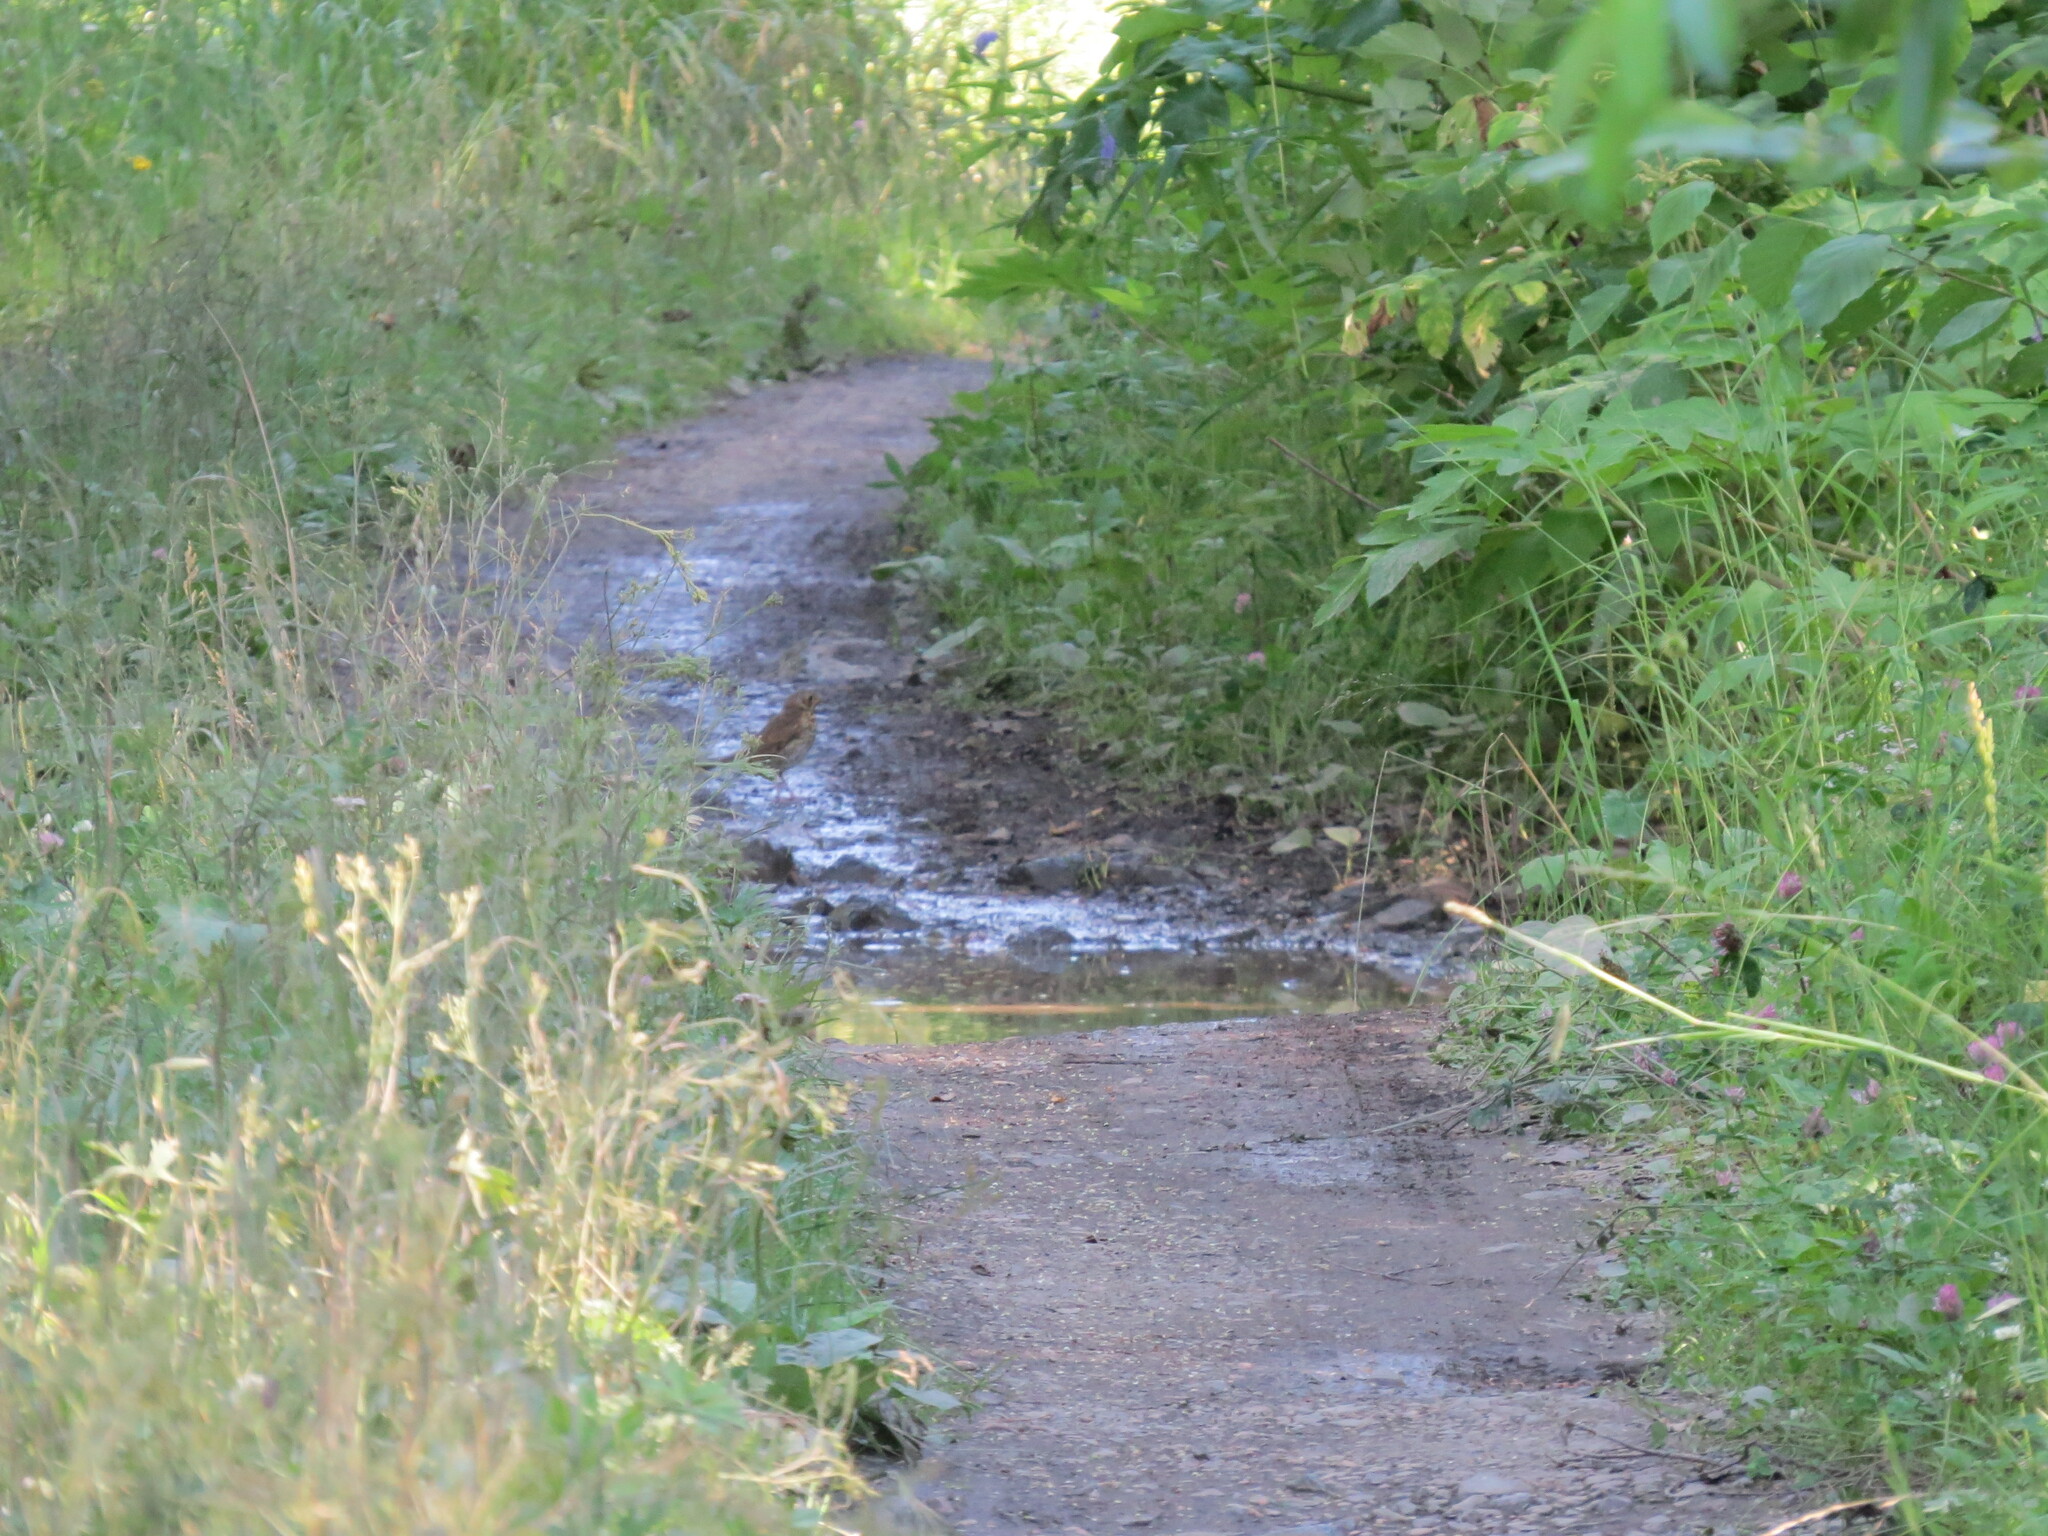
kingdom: Animalia
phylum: Chordata
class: Aves
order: Passeriformes
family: Turdidae
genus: Turdus
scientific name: Turdus philomelos
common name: Song thrush
